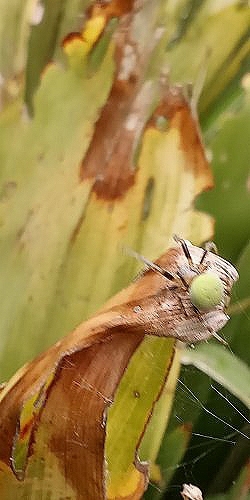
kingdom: Animalia
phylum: Arthropoda
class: Arachnida
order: Araneae
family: Araneidae
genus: Araneus
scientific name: Araneus lathyrinus
